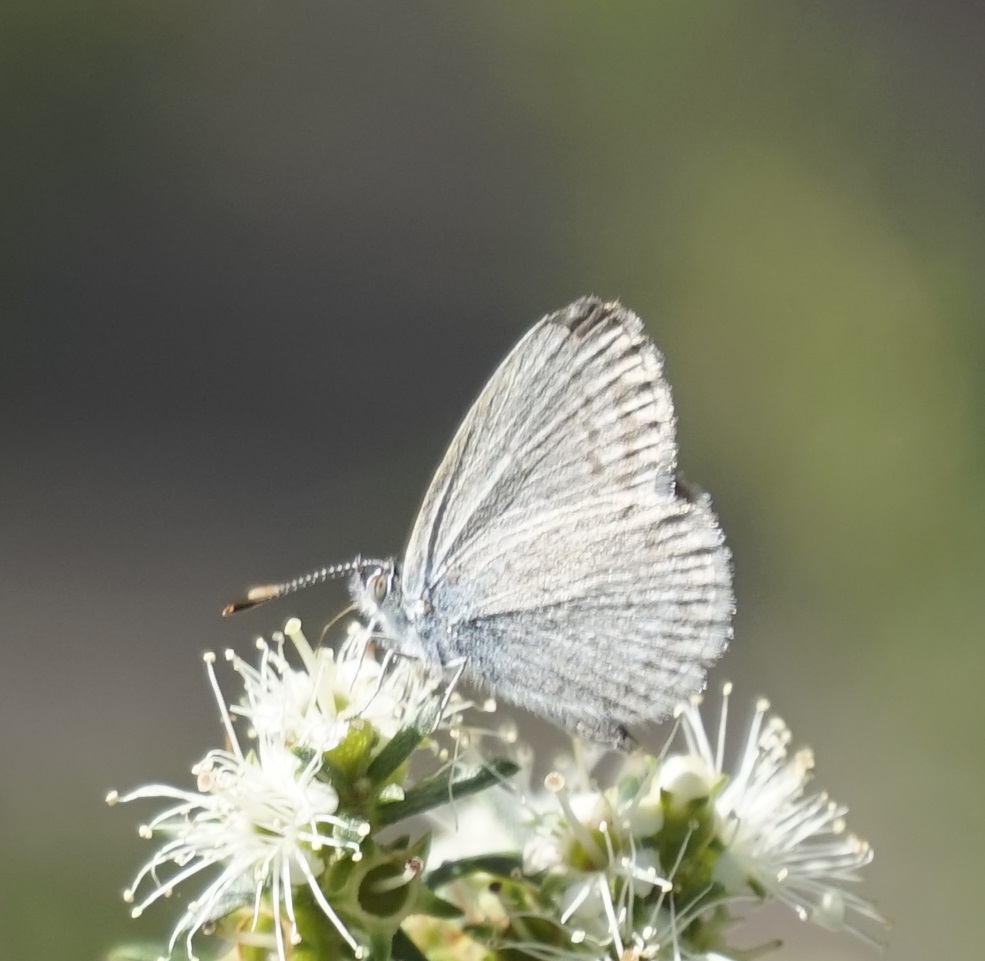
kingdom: Animalia
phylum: Arthropoda
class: Insecta
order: Lepidoptera
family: Lycaenidae
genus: Zizina
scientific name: Zizina labradus
